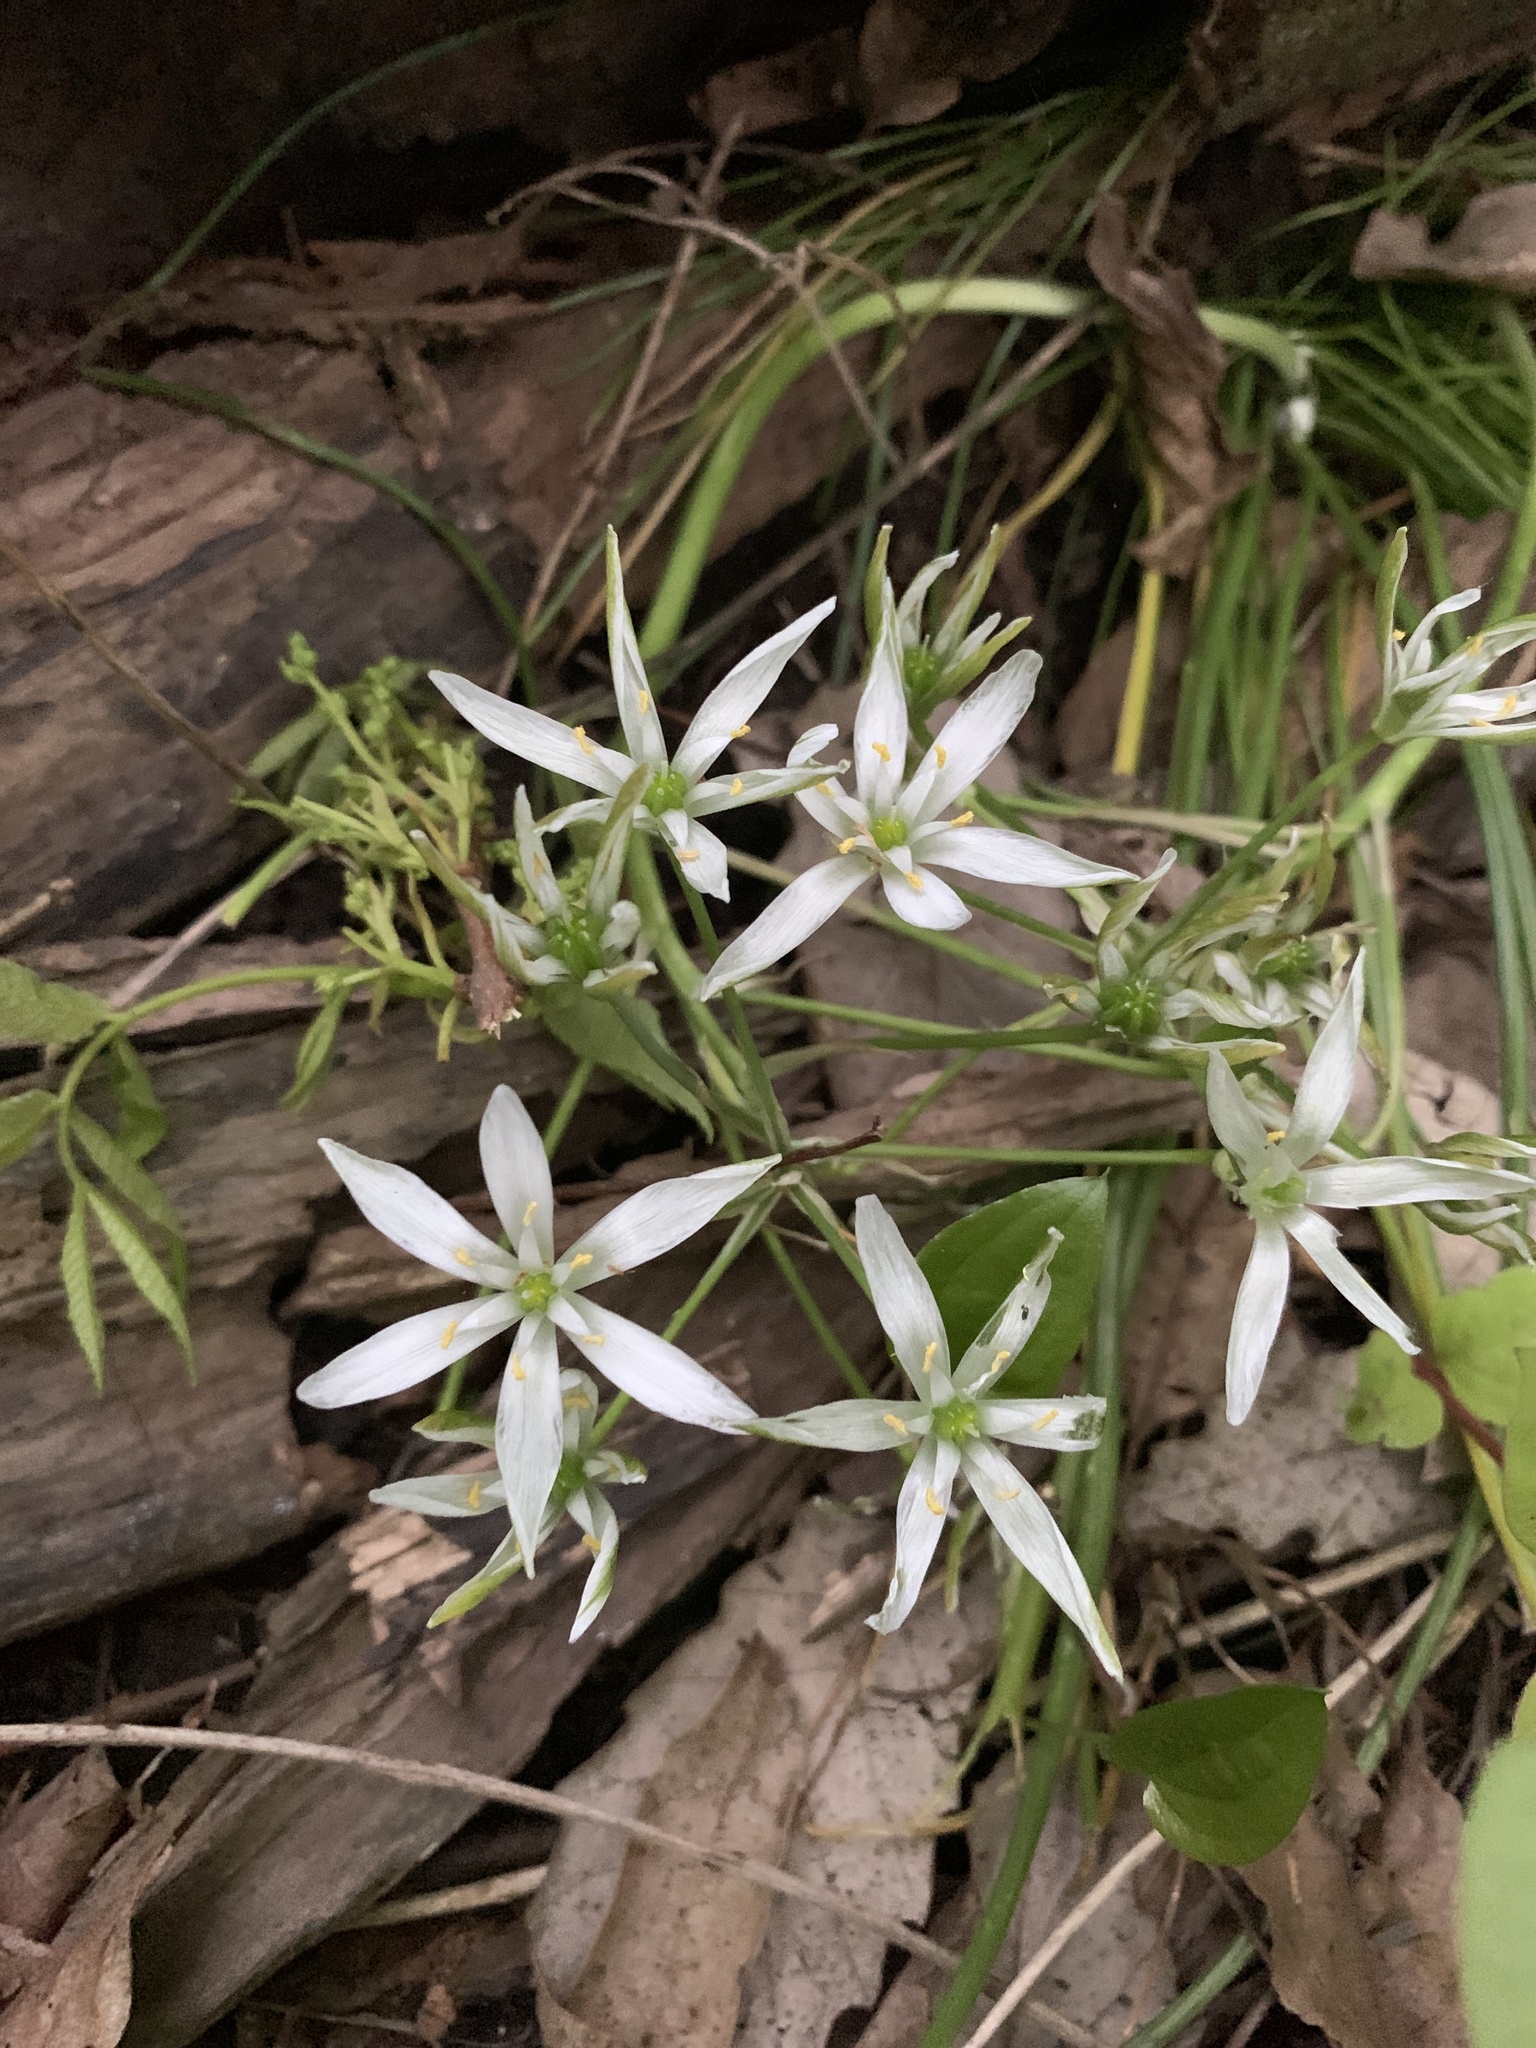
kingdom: Plantae
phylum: Tracheophyta
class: Liliopsida
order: Asparagales
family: Asparagaceae
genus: Ornithogalum
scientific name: Ornithogalum umbellatum
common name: Garden star-of-bethlehem
